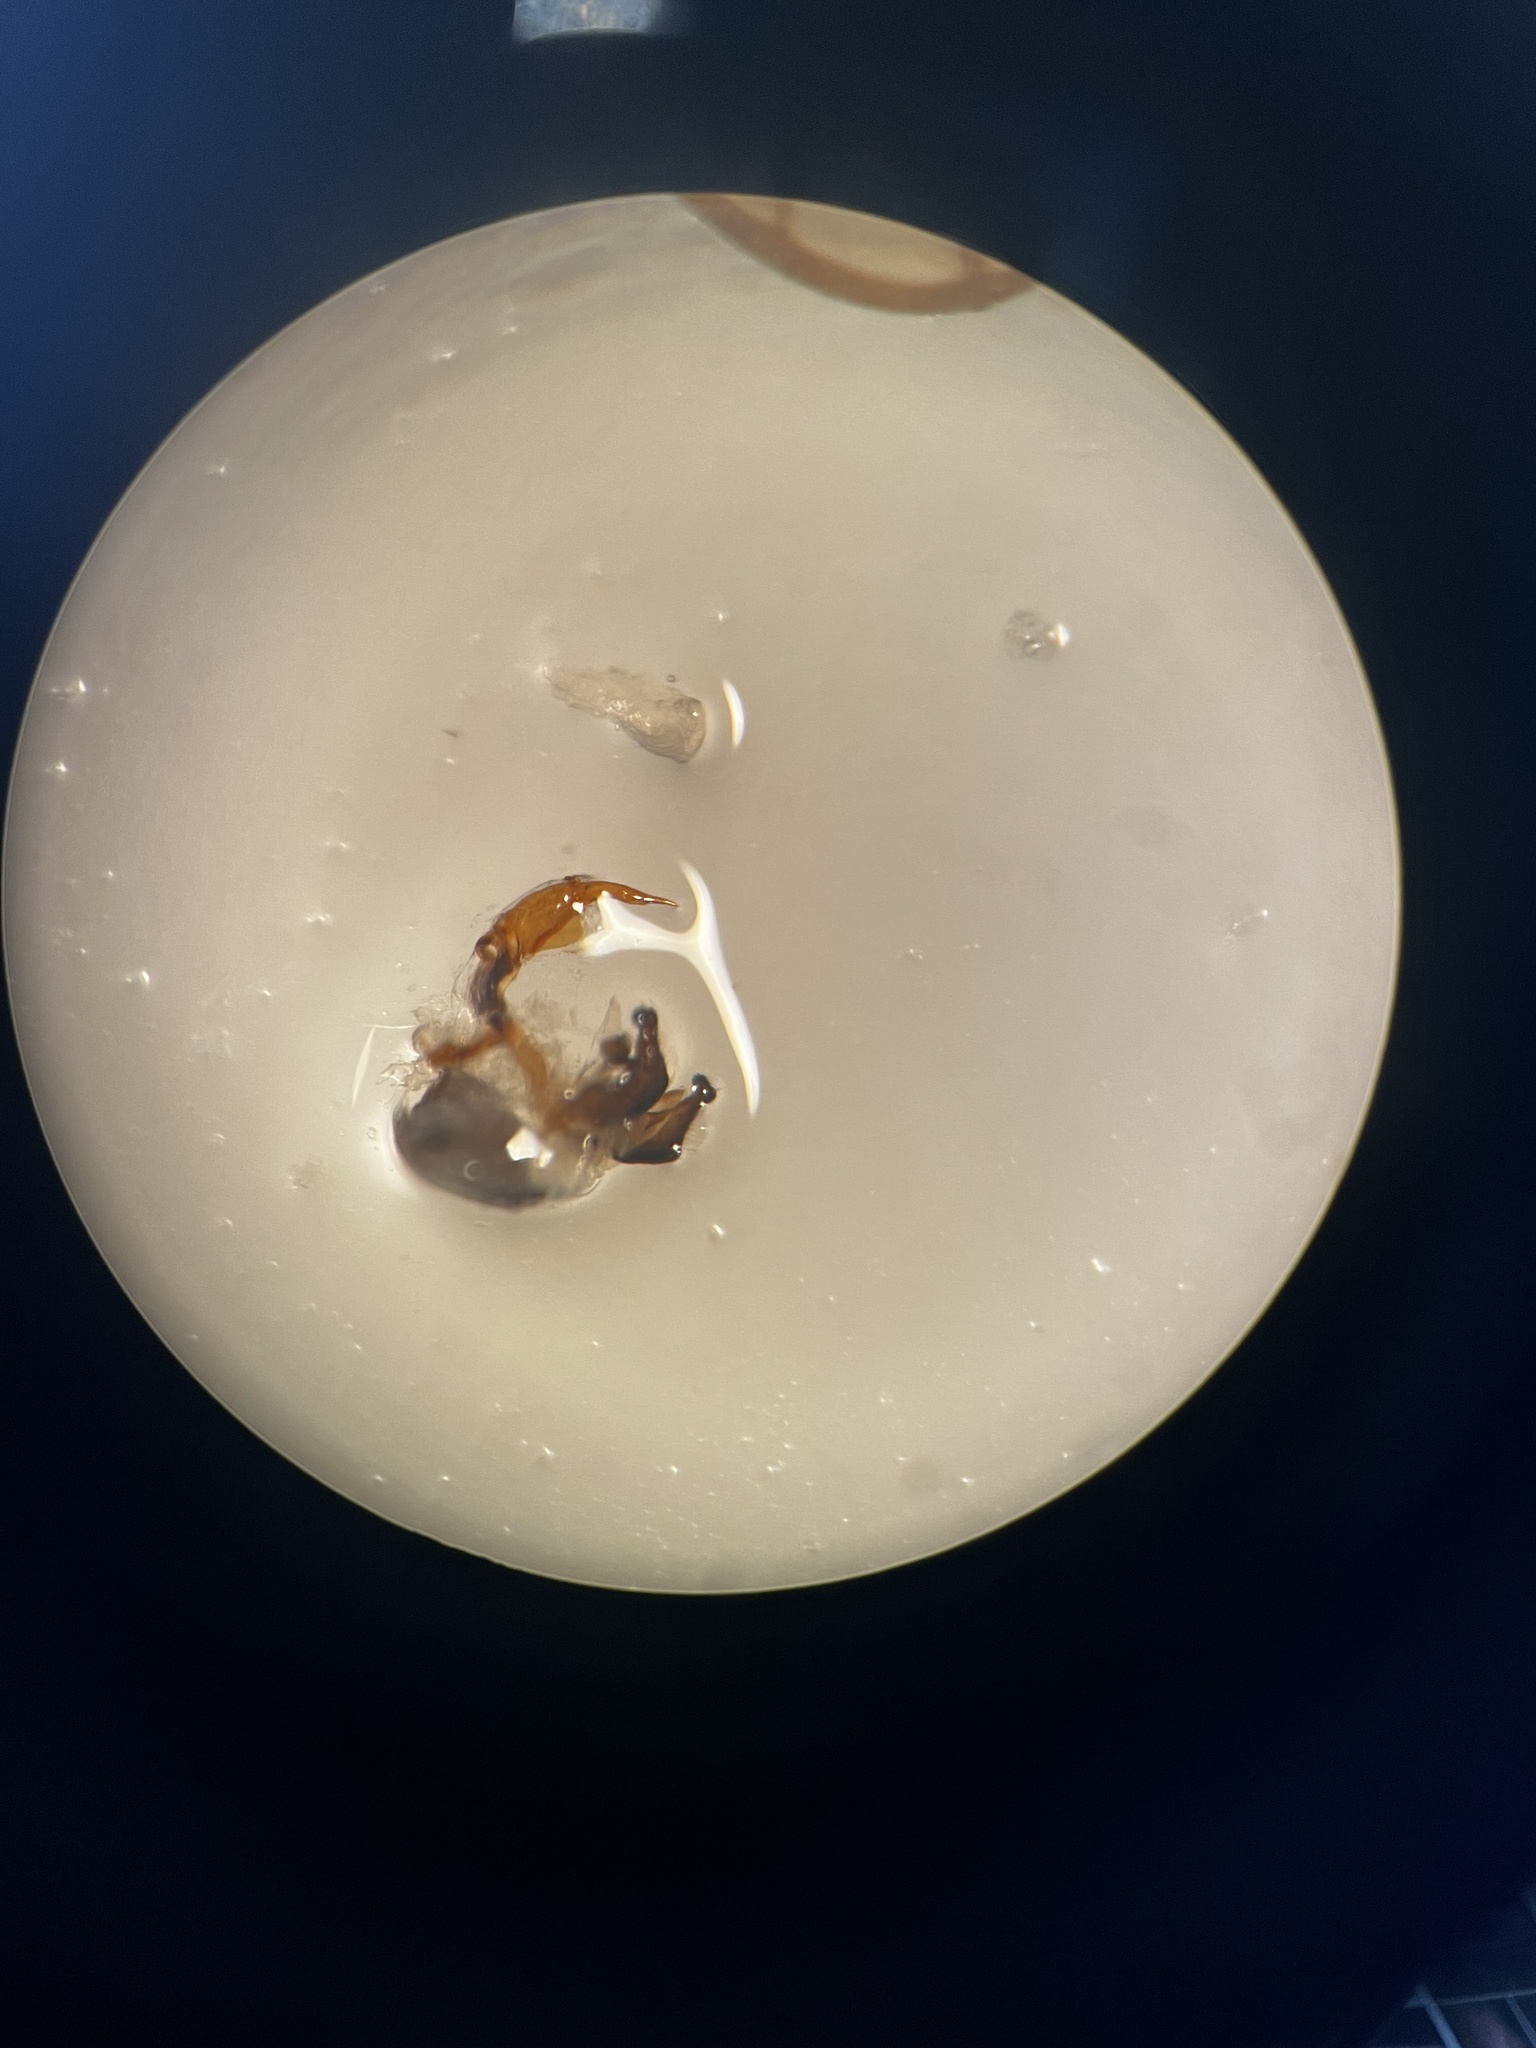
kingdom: Animalia
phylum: Arthropoda
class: Insecta
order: Hemiptera
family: Delphacidae
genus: Laodelphax
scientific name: Laodelphax striatellus
